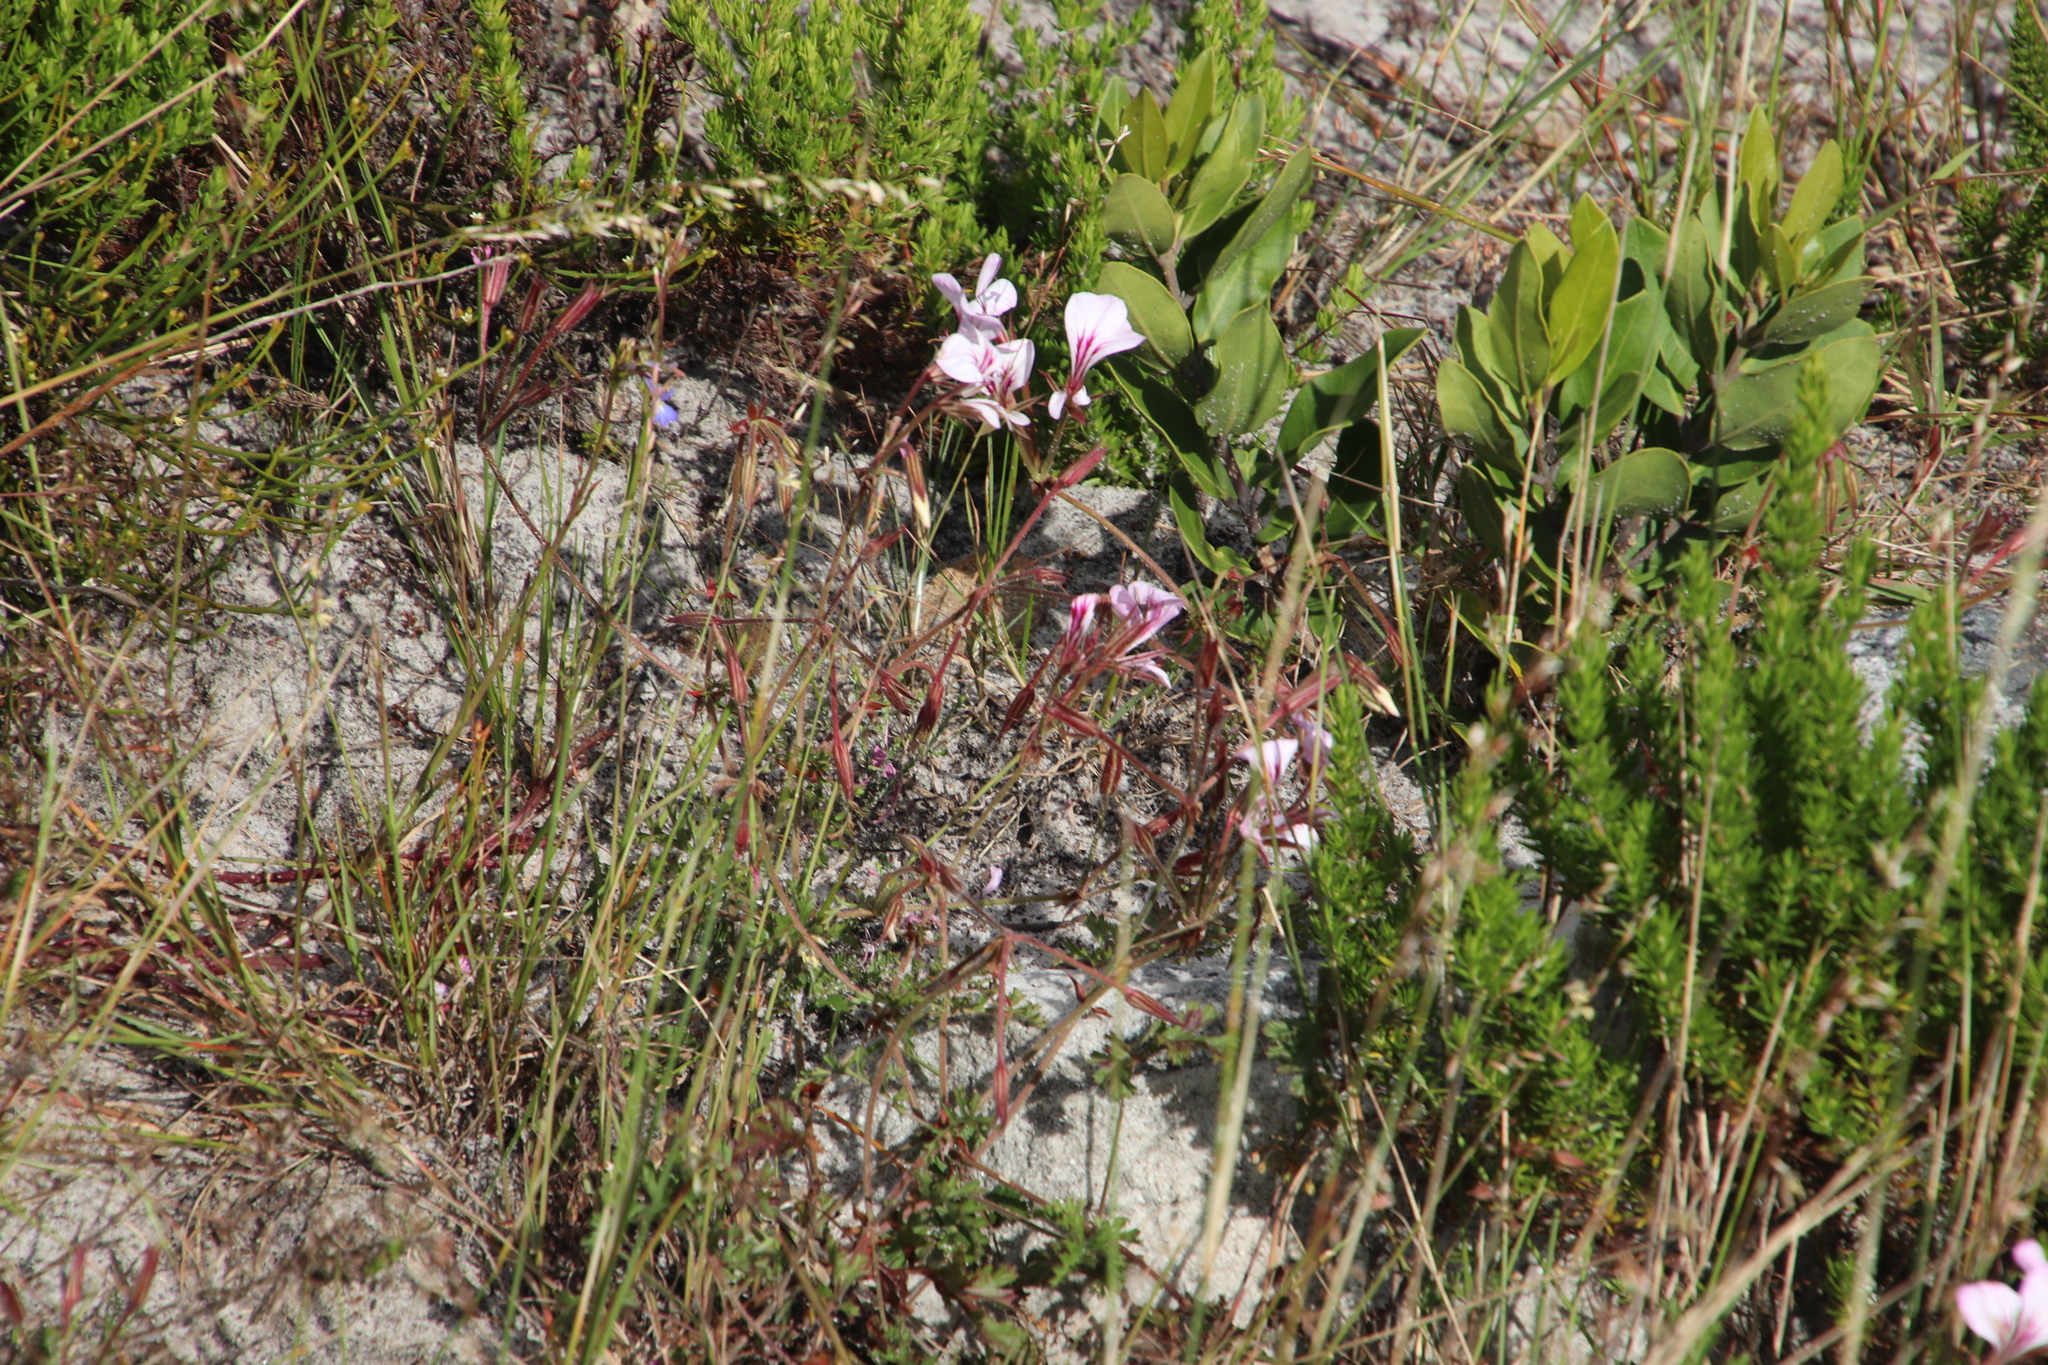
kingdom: Plantae
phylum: Tracheophyta
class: Magnoliopsida
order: Geraniales
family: Geraniaceae
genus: Pelargonium
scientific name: Pelargonium longicaule
